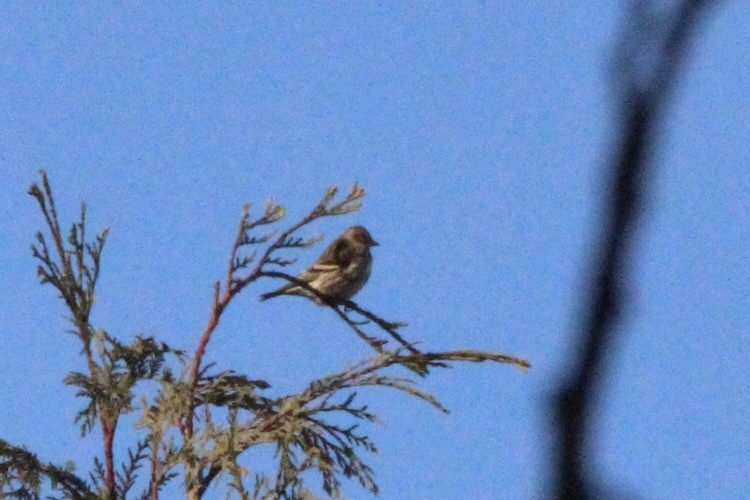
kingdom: Animalia
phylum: Chordata
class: Aves
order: Passeriformes
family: Fringillidae
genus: Spinus
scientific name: Spinus pinus
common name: Pine siskin
